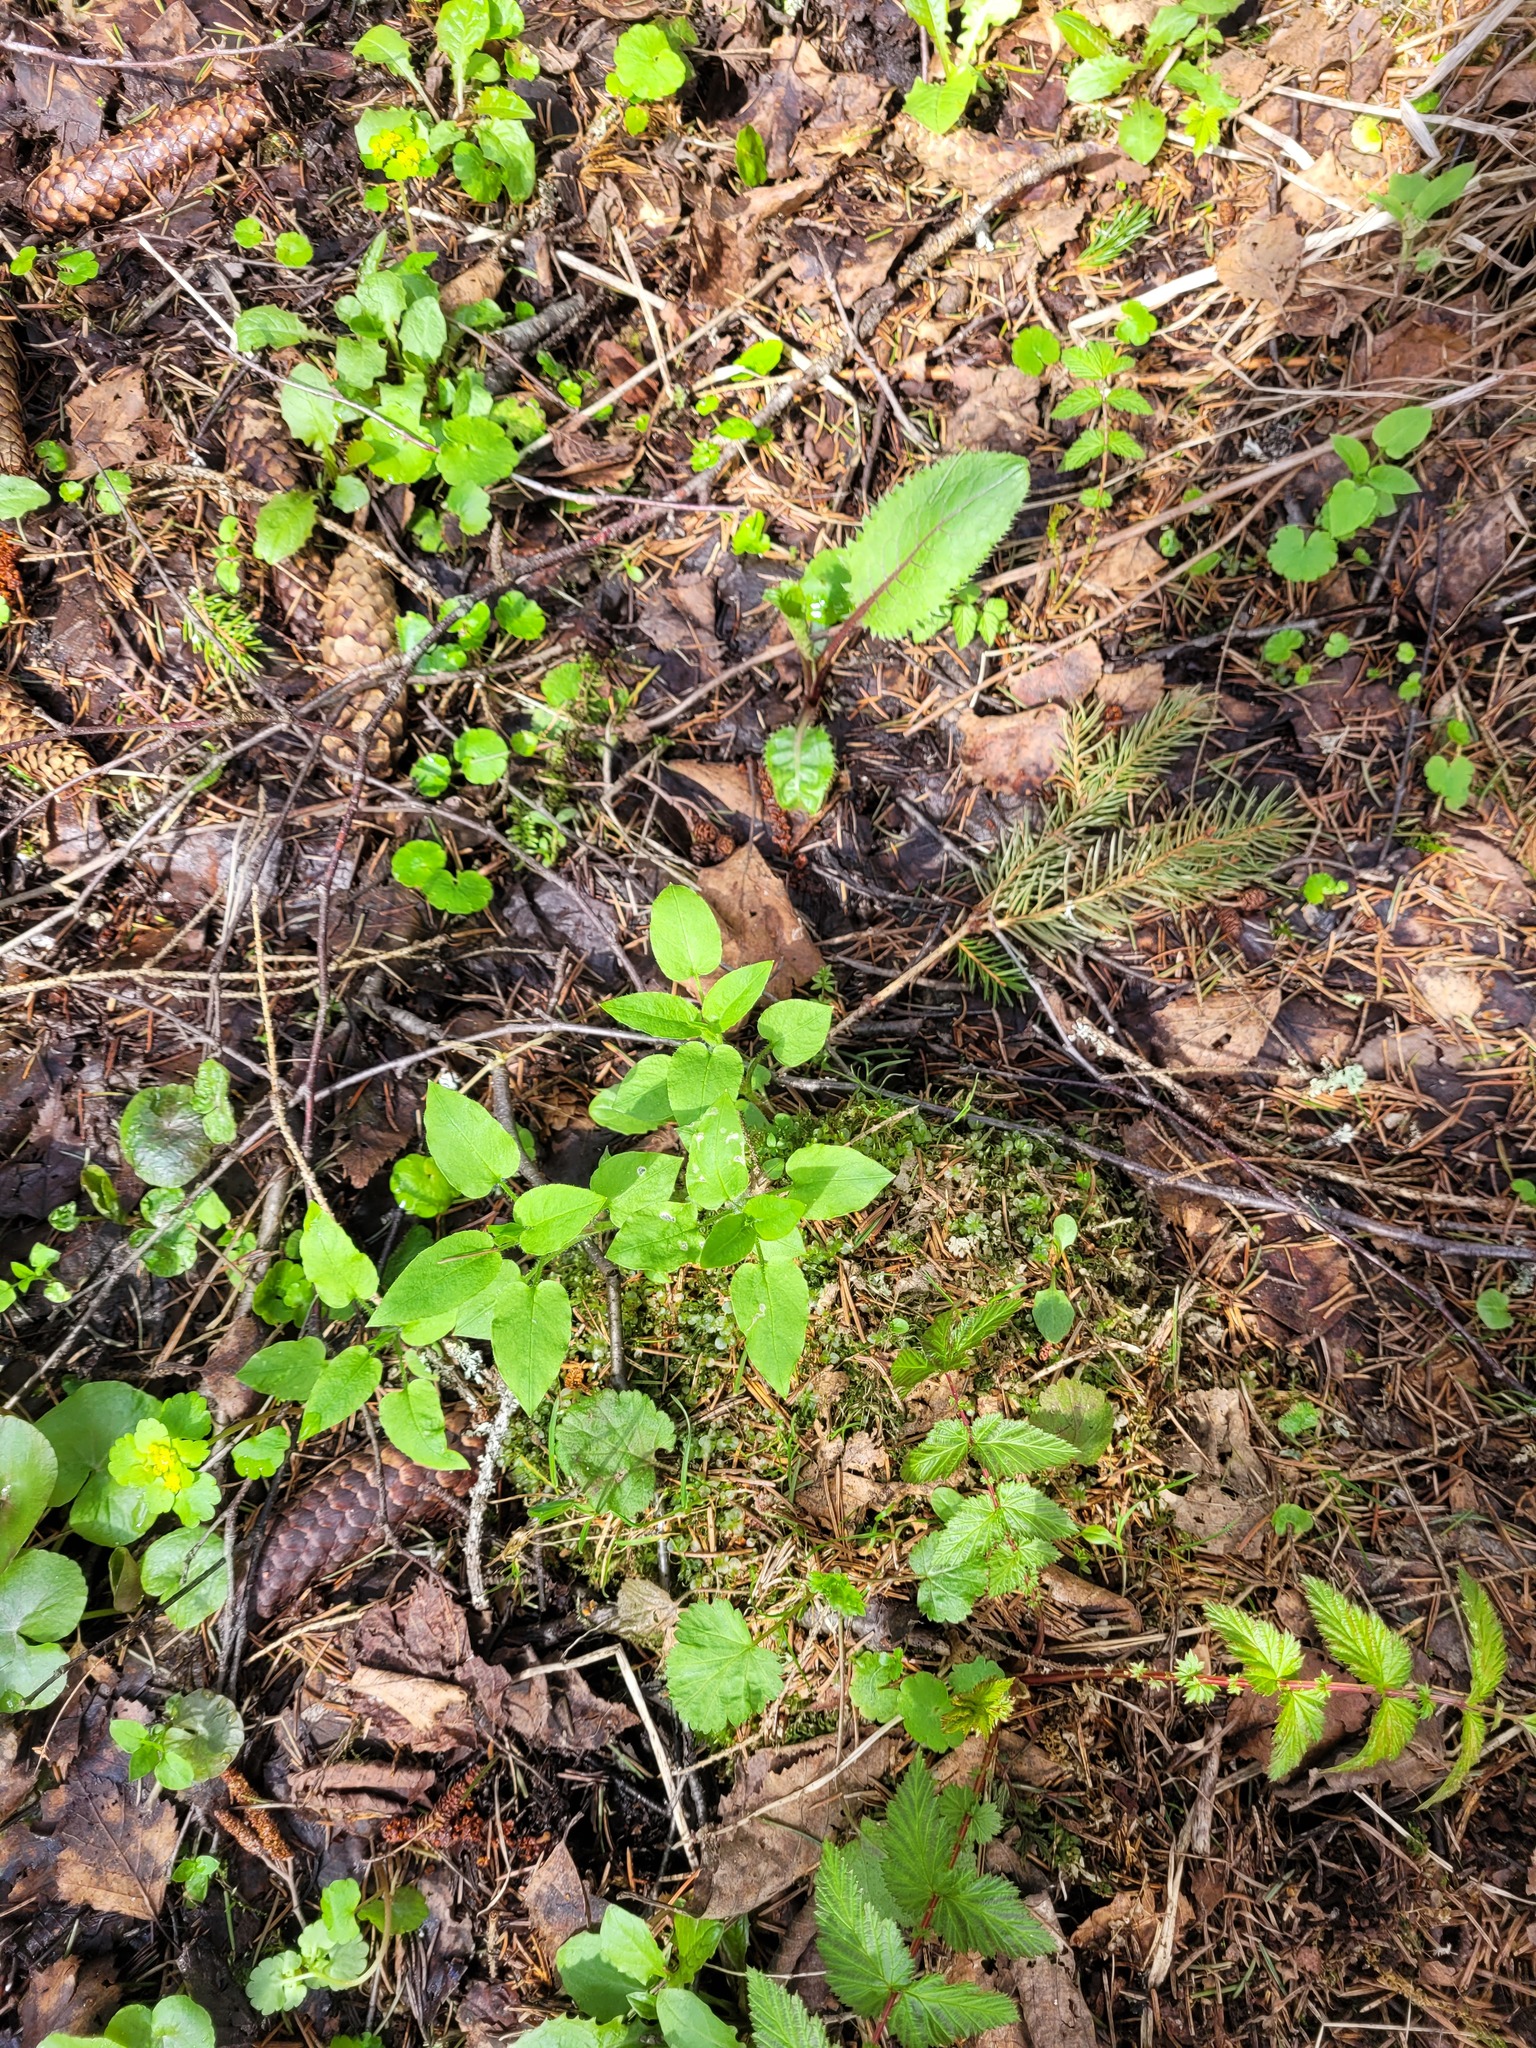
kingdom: Plantae
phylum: Tracheophyta
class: Magnoliopsida
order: Caryophyllales
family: Caryophyllaceae
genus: Stellaria
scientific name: Stellaria nemorum
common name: Wood stitchwort
